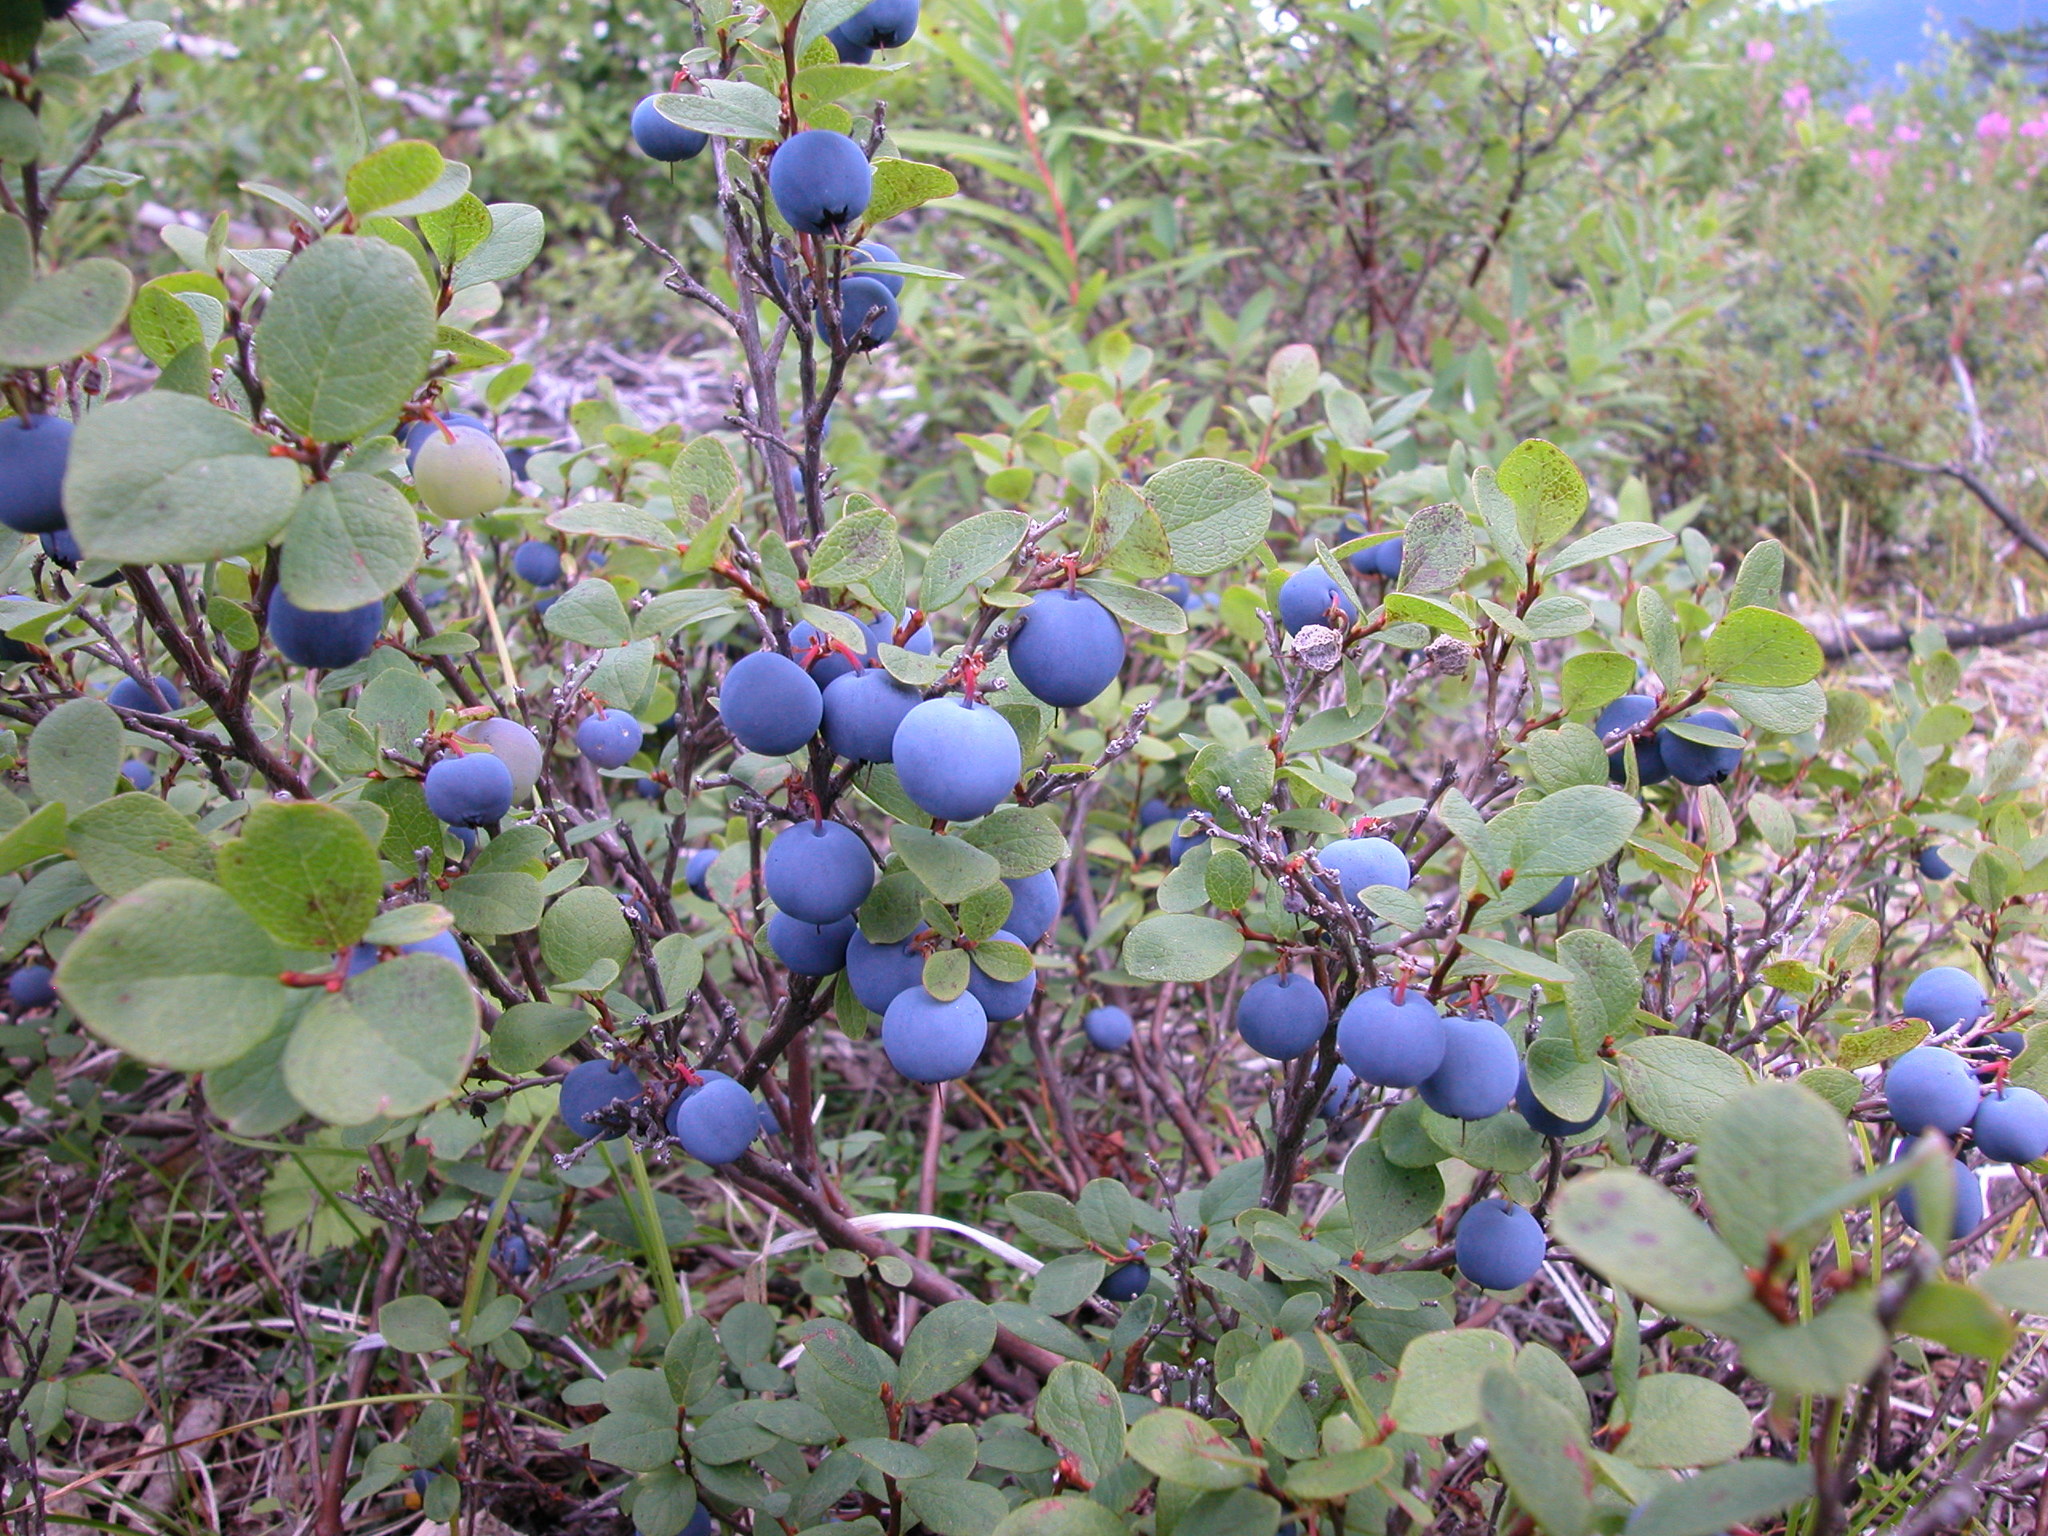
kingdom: Plantae
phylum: Tracheophyta
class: Magnoliopsida
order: Ericales
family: Ericaceae
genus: Vaccinium
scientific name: Vaccinium uliginosum
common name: Bog bilberry
